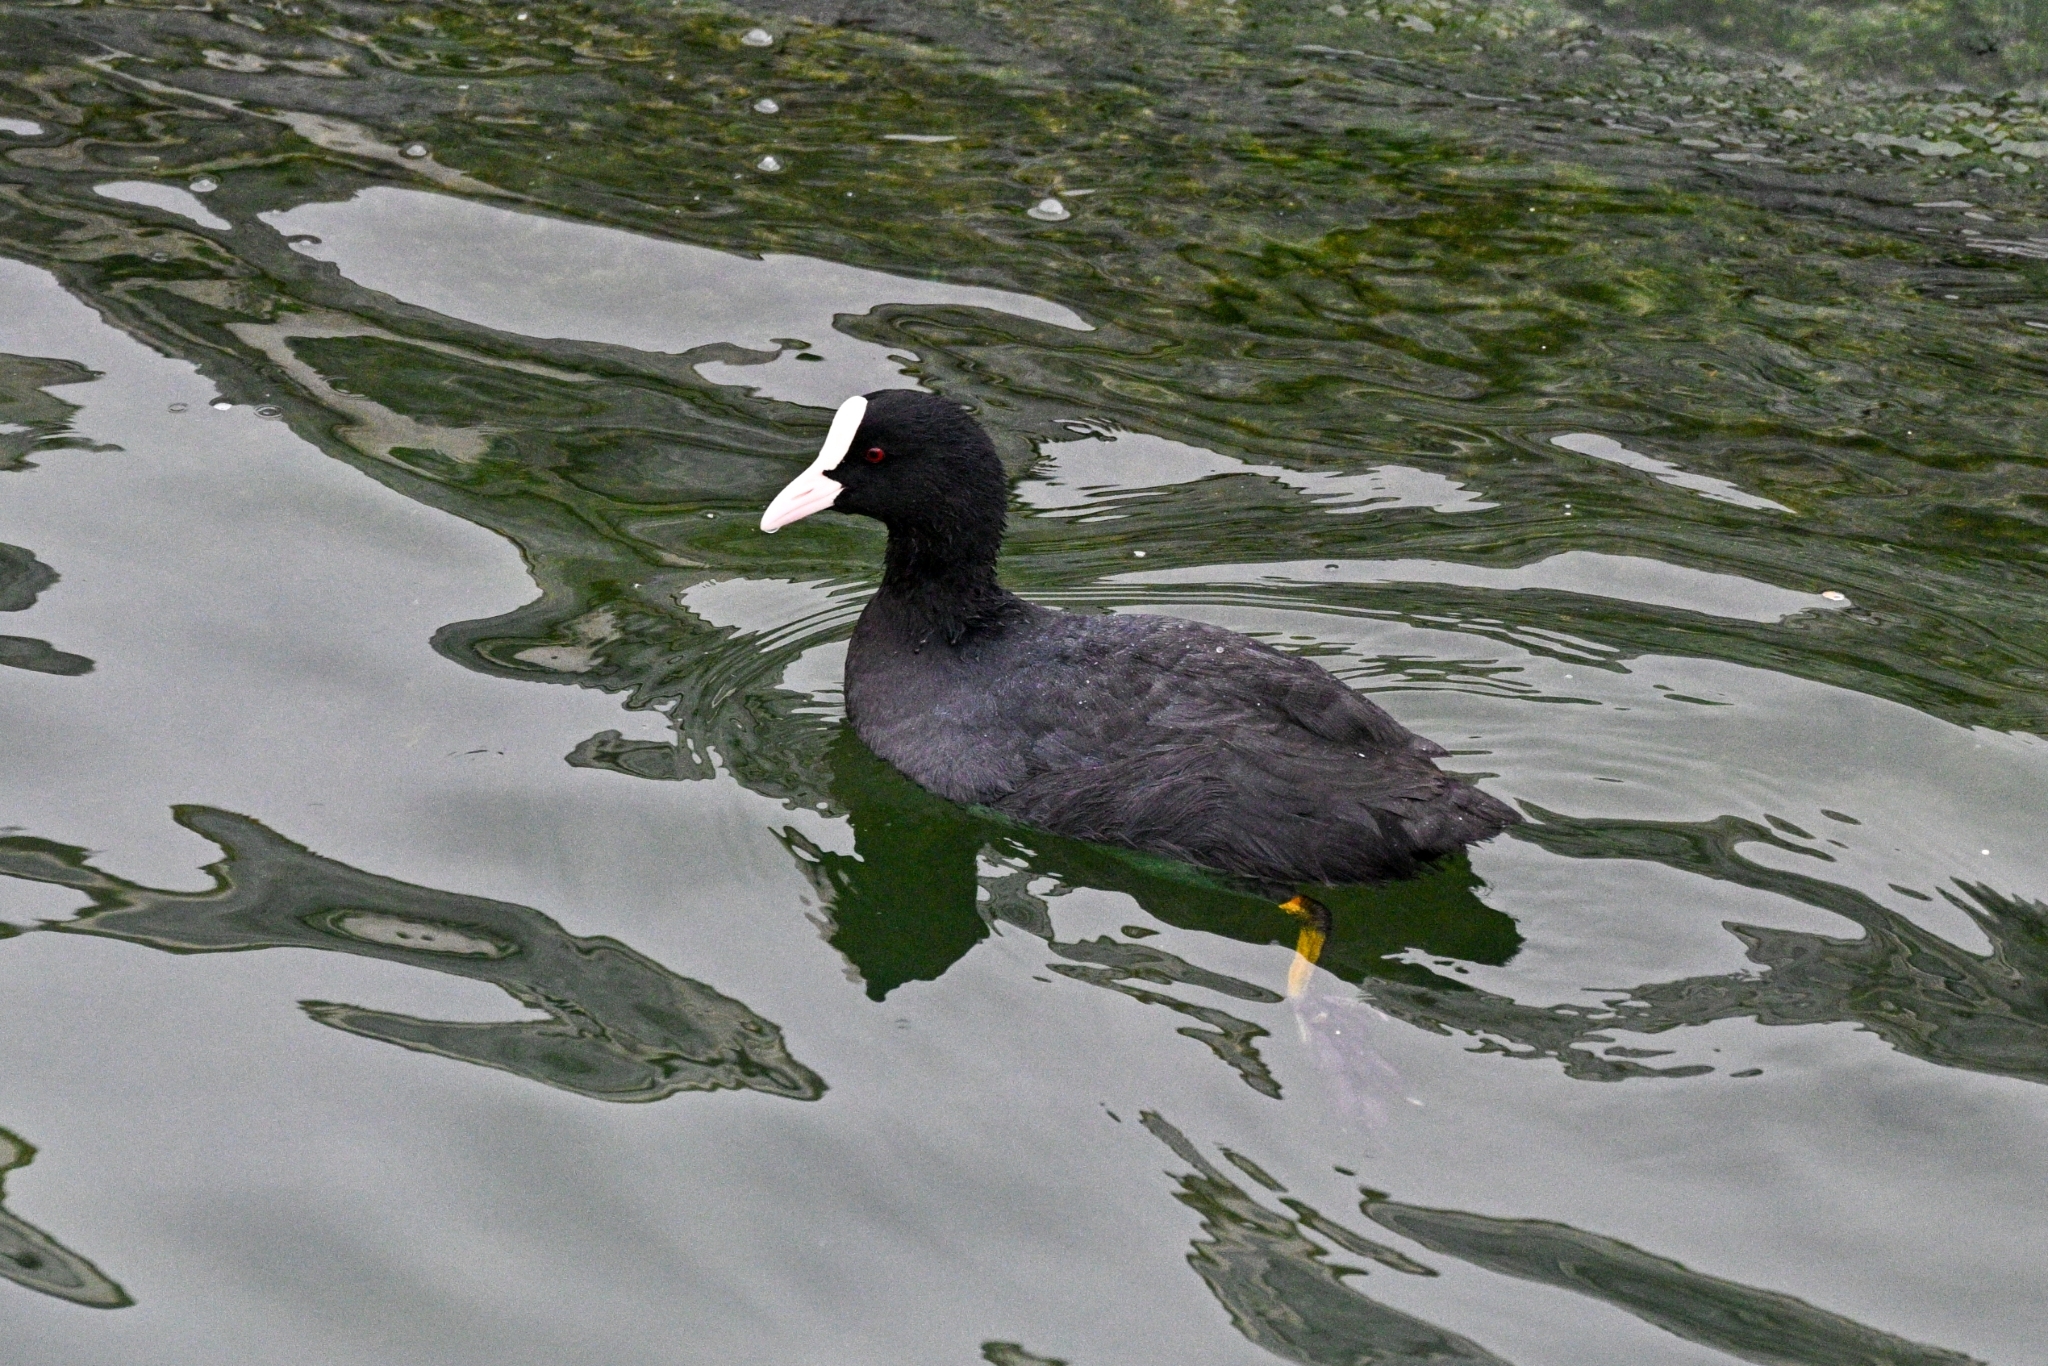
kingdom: Animalia
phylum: Chordata
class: Aves
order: Gruiformes
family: Rallidae
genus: Fulica
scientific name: Fulica atra
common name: Eurasian coot
